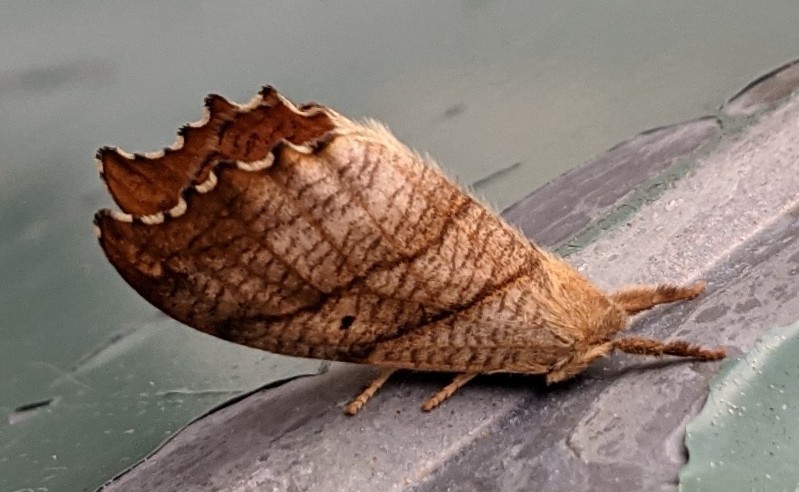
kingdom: Animalia
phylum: Arthropoda
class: Insecta
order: Lepidoptera
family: Drepanidae
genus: Falcaria
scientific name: Falcaria bilineata
